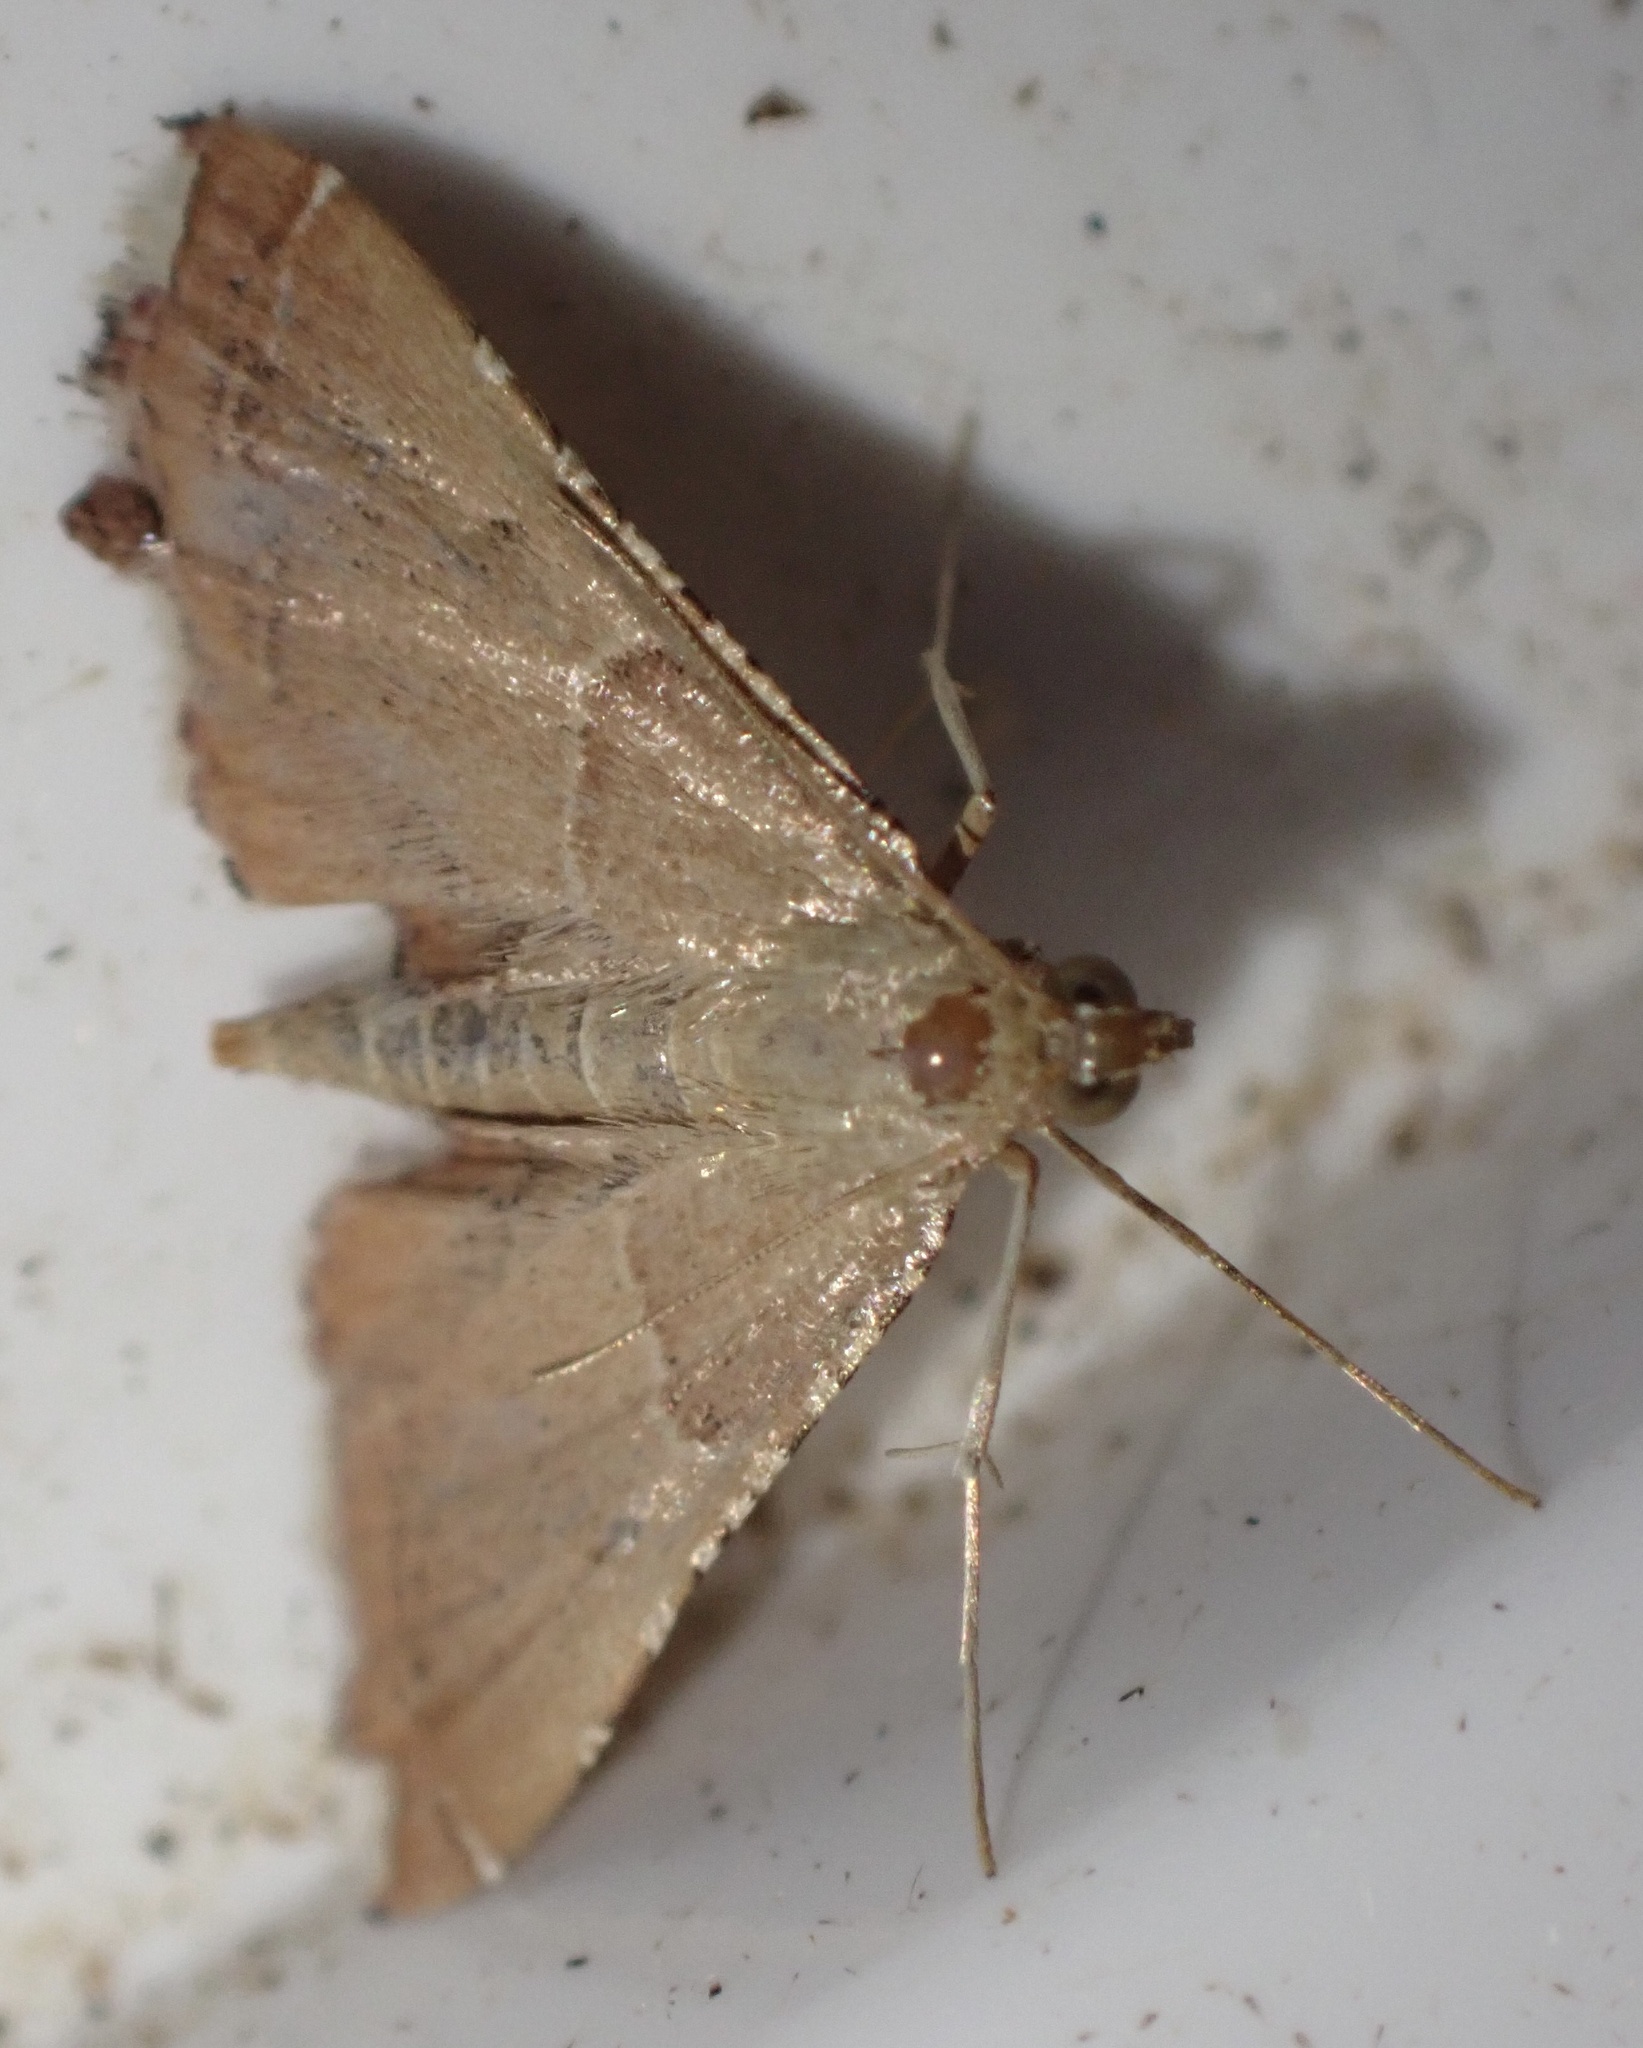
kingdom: Animalia
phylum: Arthropoda
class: Insecta
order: Lepidoptera
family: Pyralidae
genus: Endotricha
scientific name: Endotricha flammealis
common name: Rosy tabby
